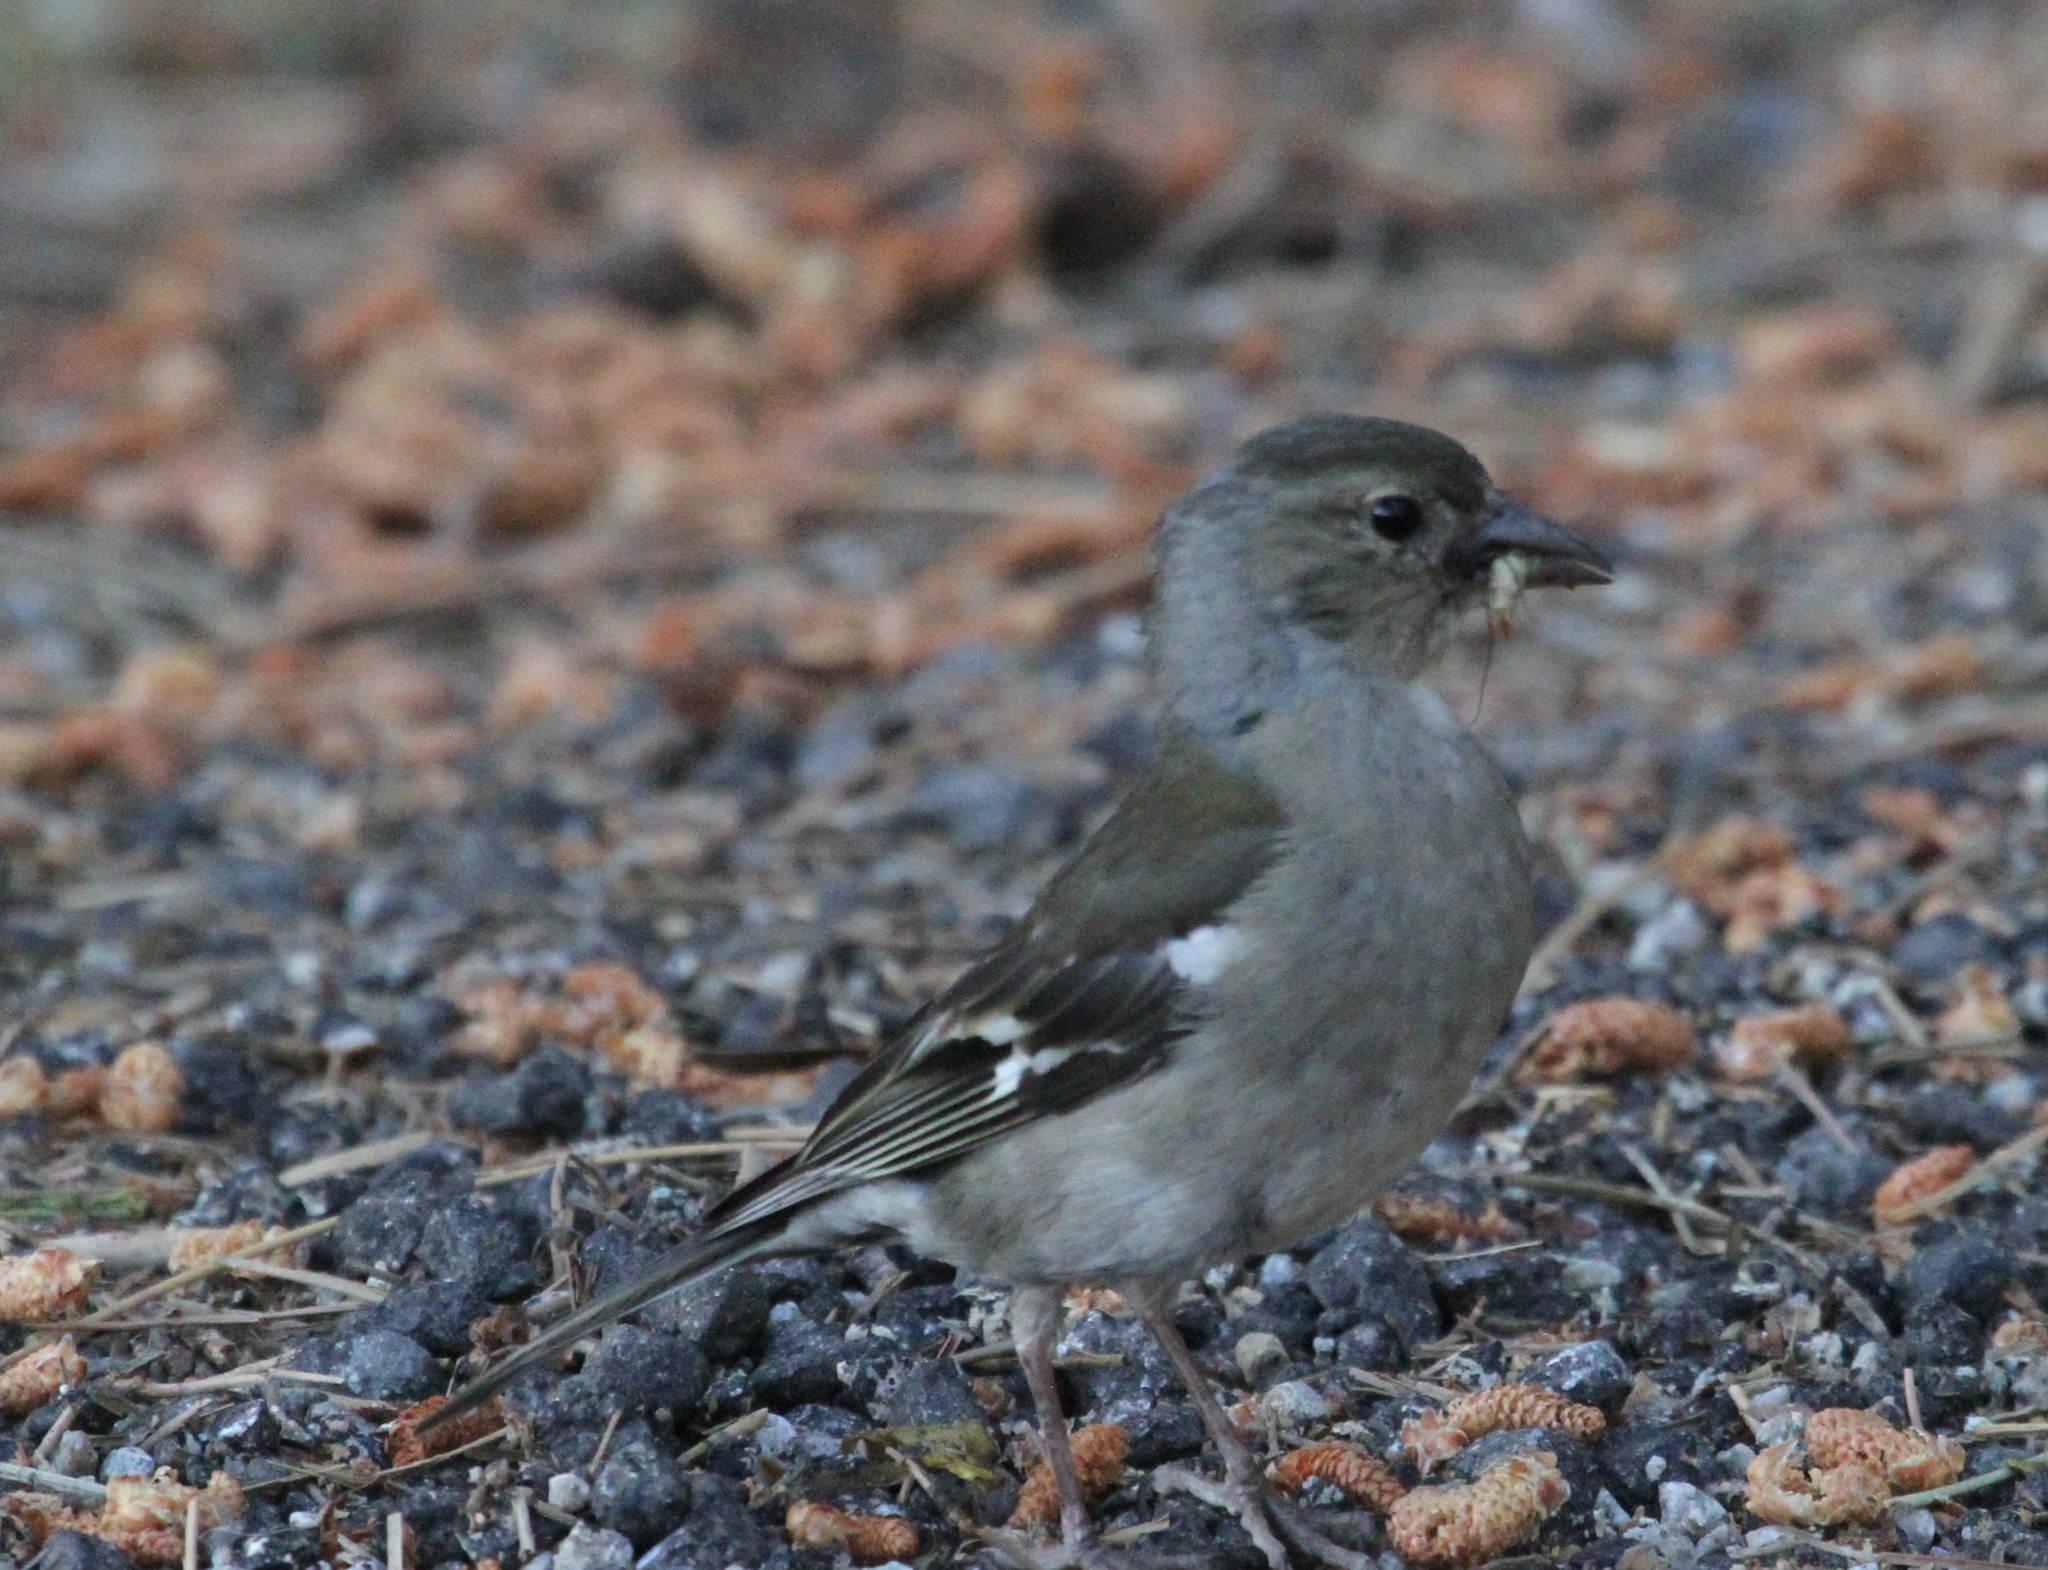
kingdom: Animalia
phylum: Chordata
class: Aves
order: Passeriformes
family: Fringillidae
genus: Fringilla
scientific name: Fringilla coelebs
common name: Common chaffinch
